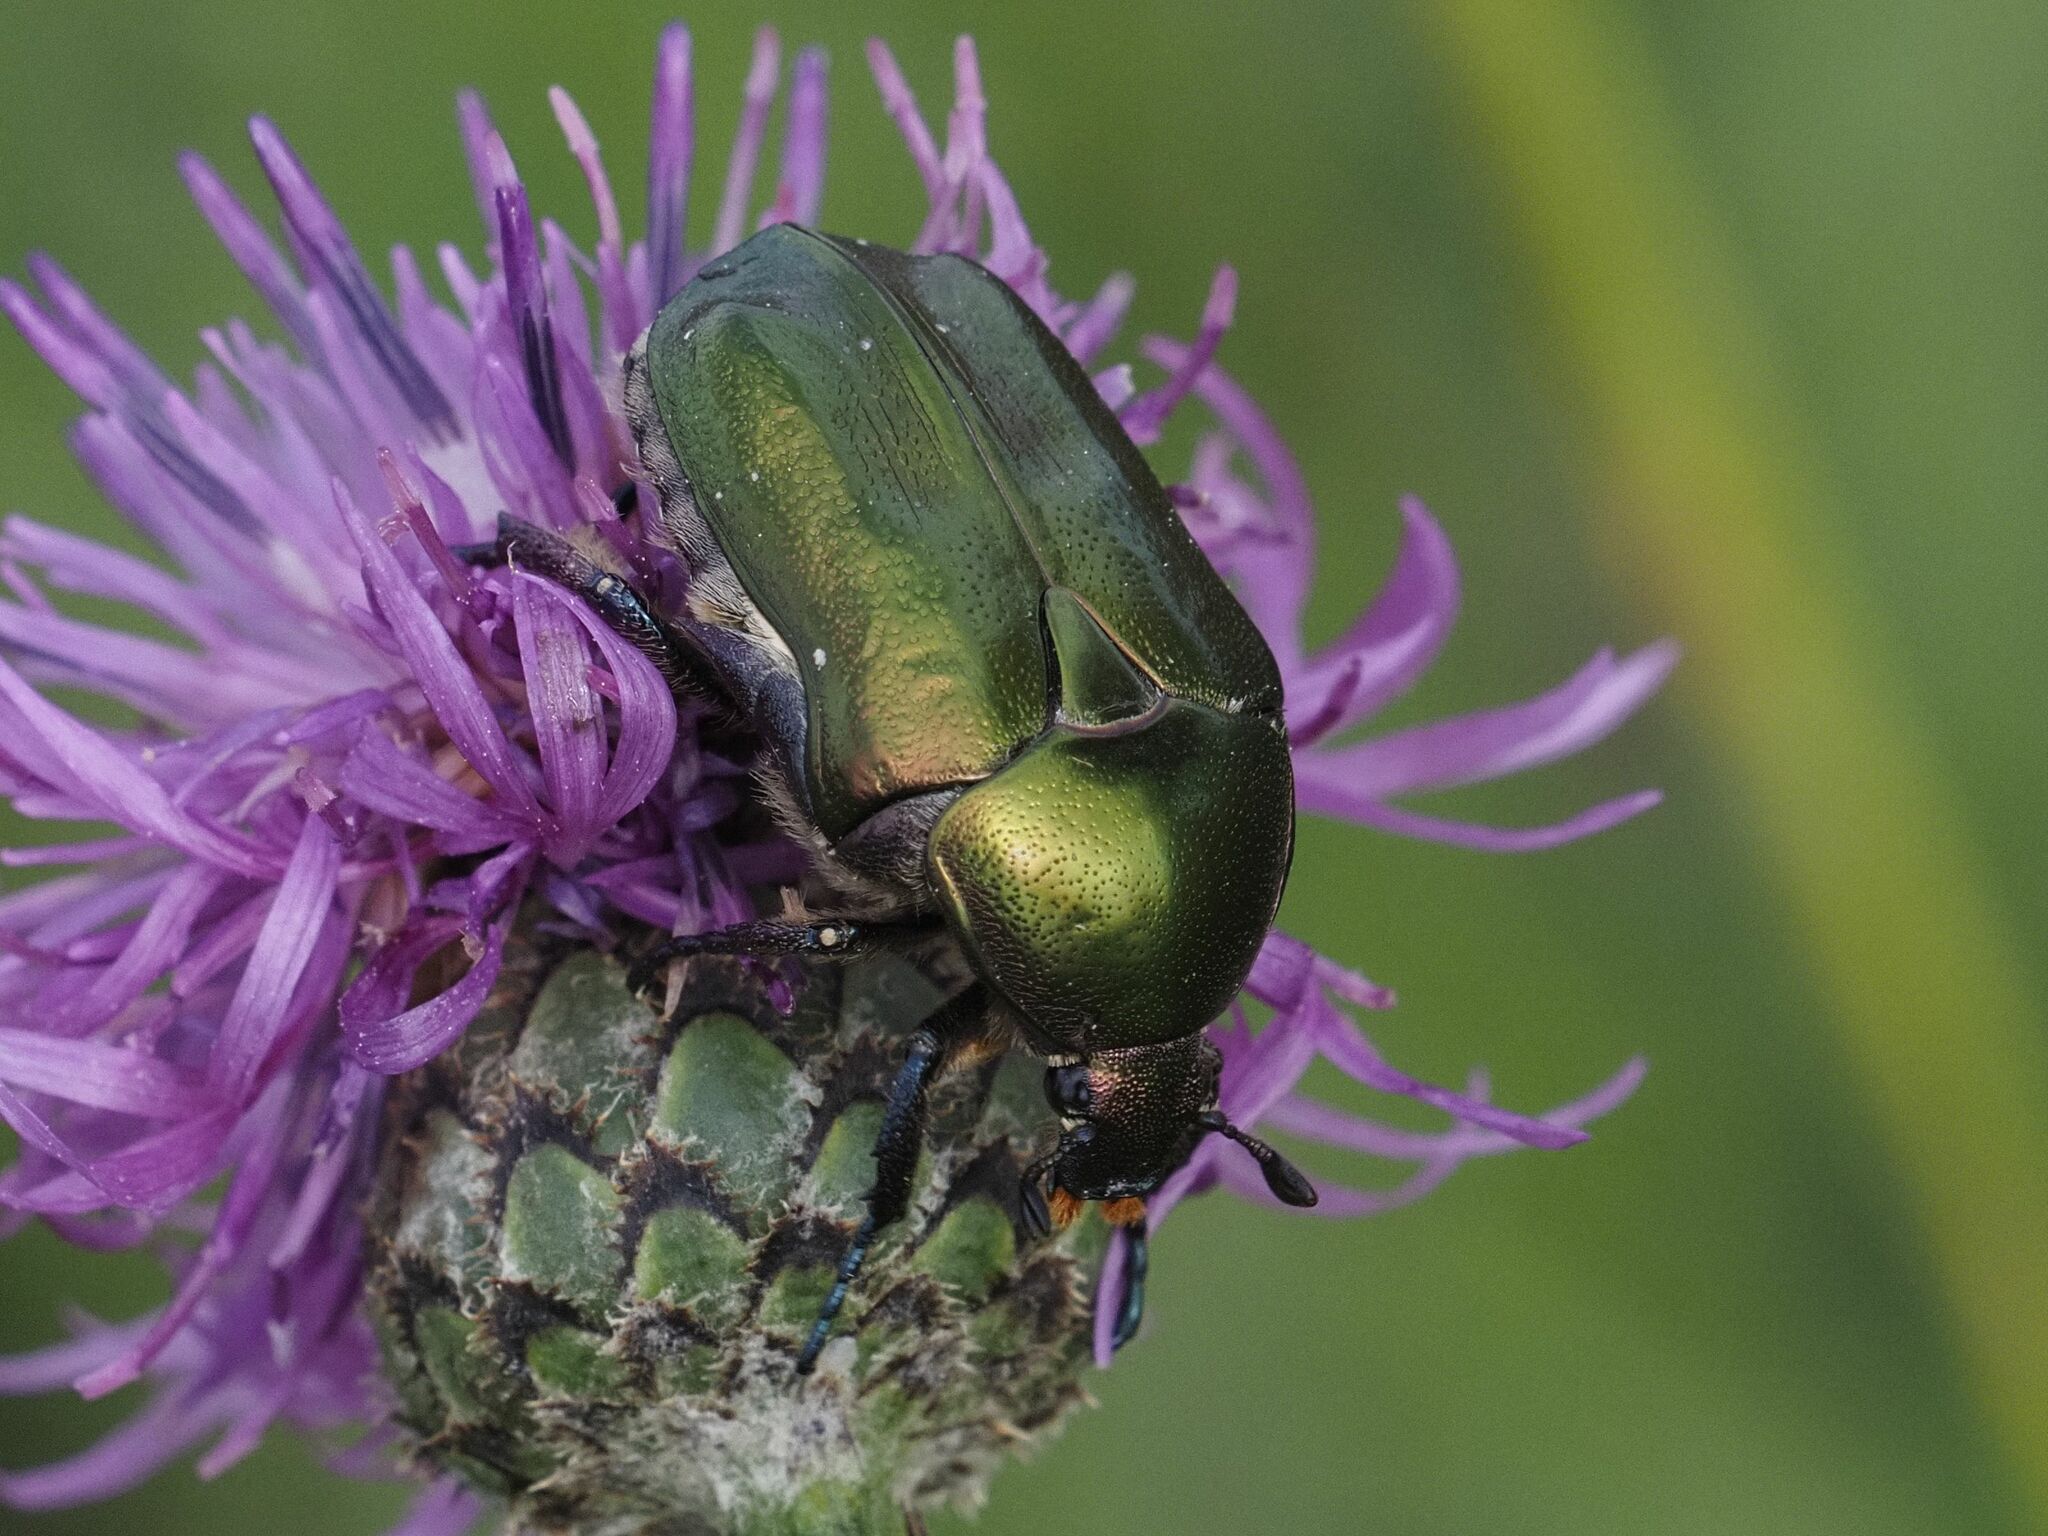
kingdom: Animalia
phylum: Arthropoda
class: Insecta
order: Coleoptera
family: Scarabaeidae
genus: Protaetia
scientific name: Protaetia cuprea
